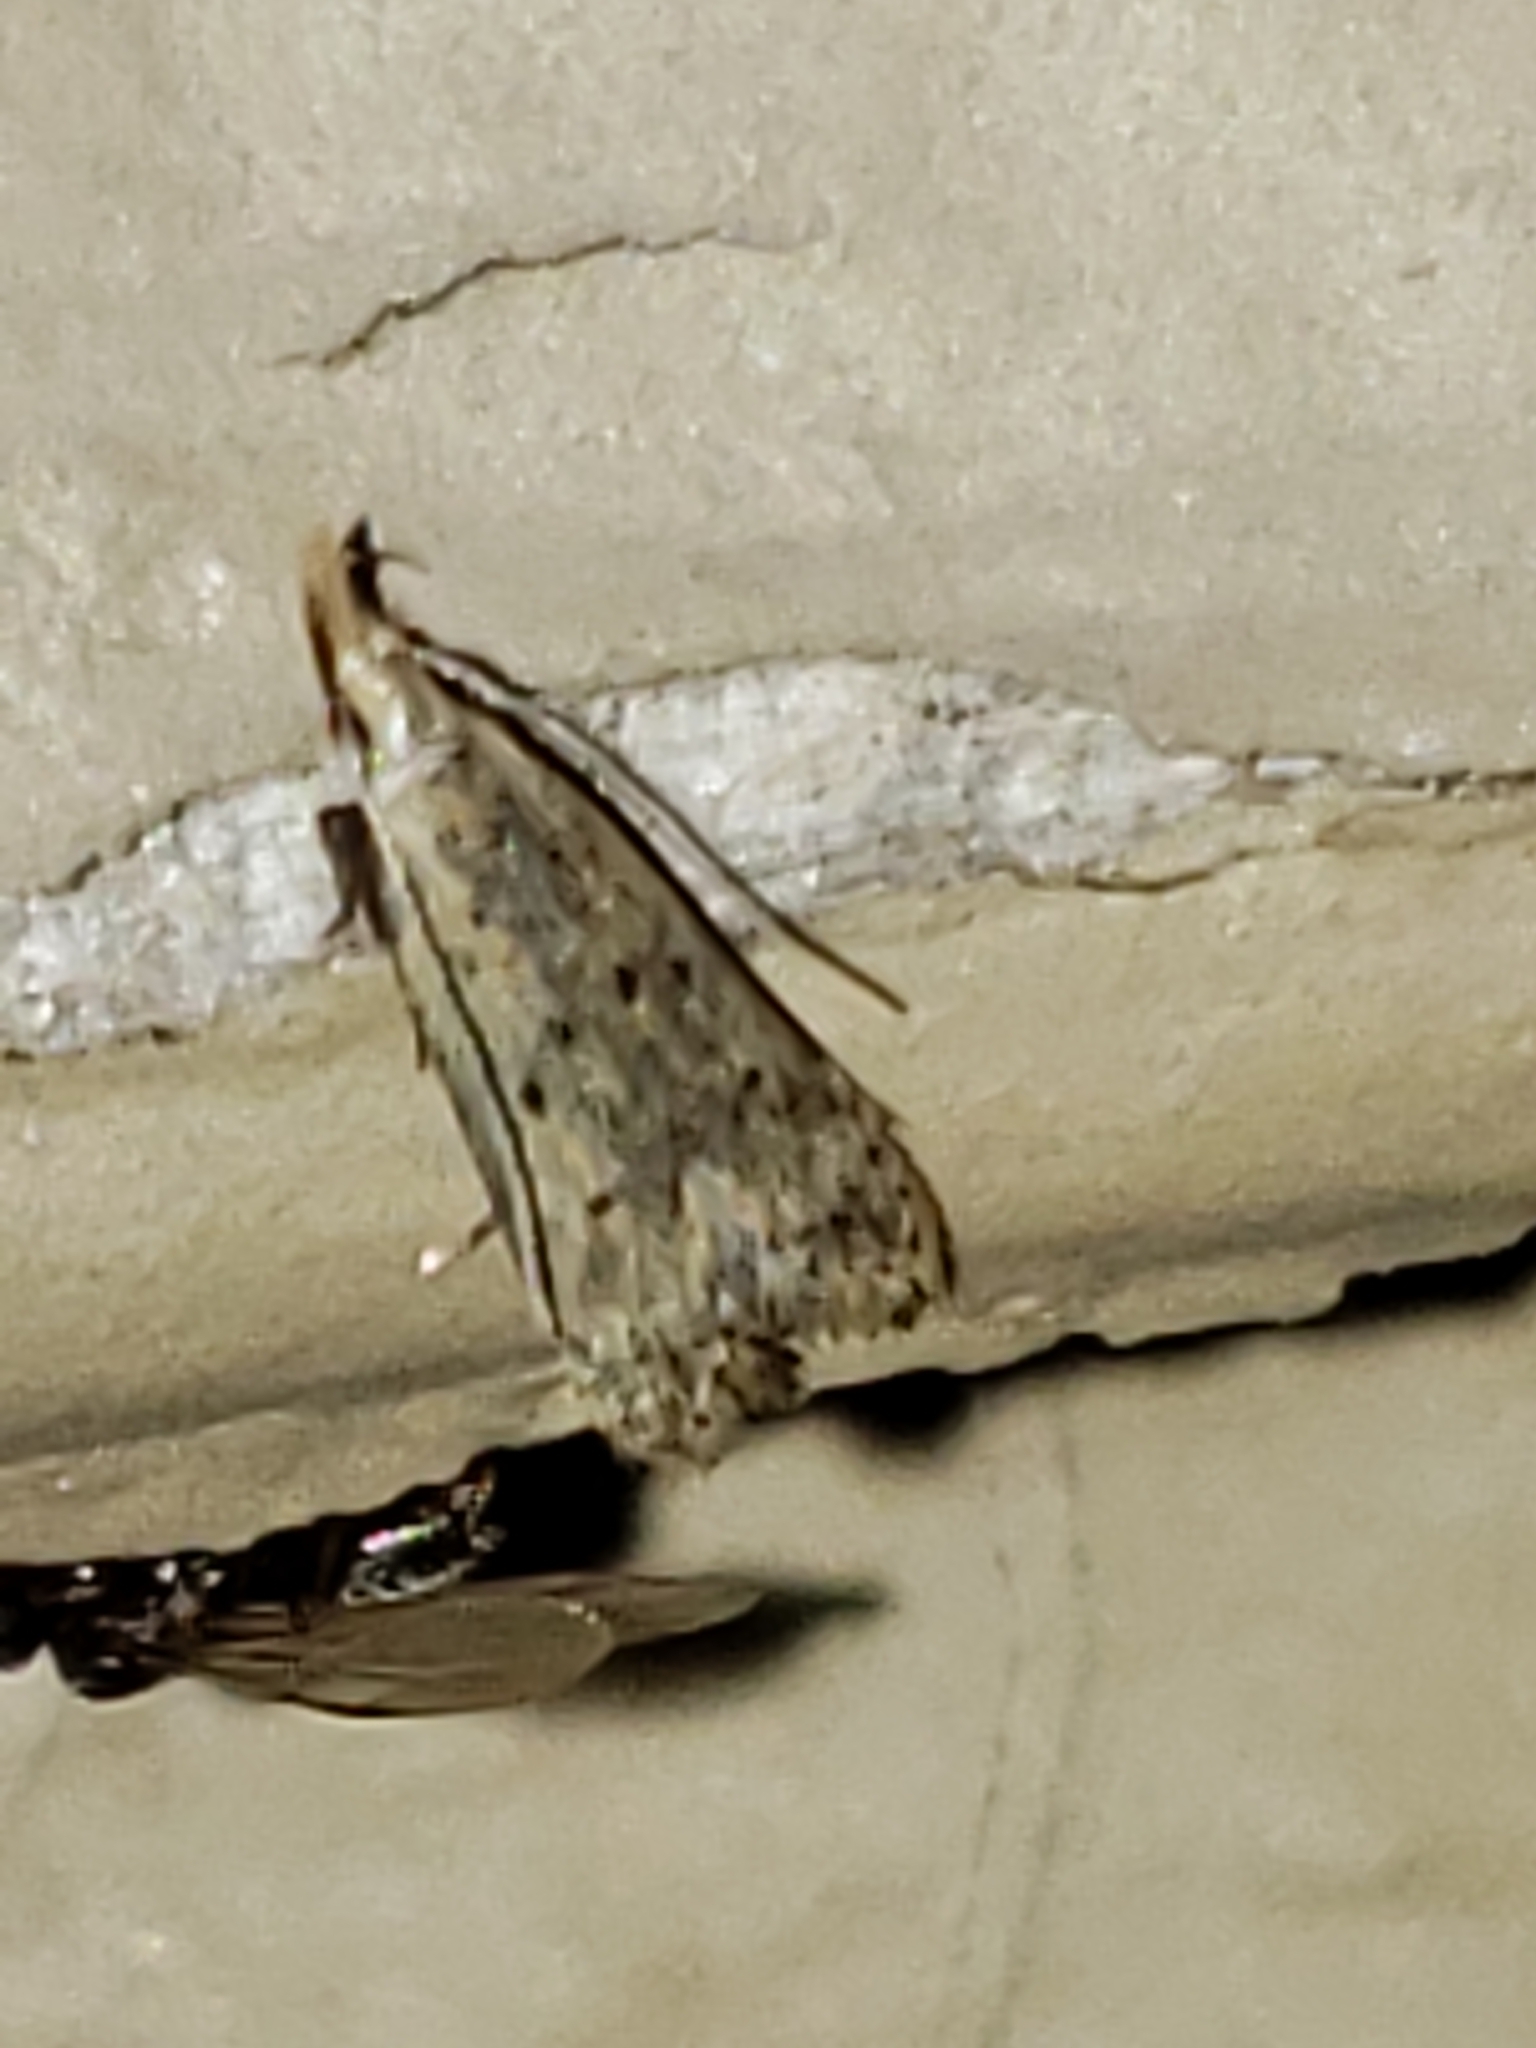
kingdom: Animalia
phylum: Arthropoda
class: Insecta
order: Lepidoptera
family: Gelechiidae
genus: Dichomeris
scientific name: Dichomeris punctipennella
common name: Many-spotted dichomeris moth
